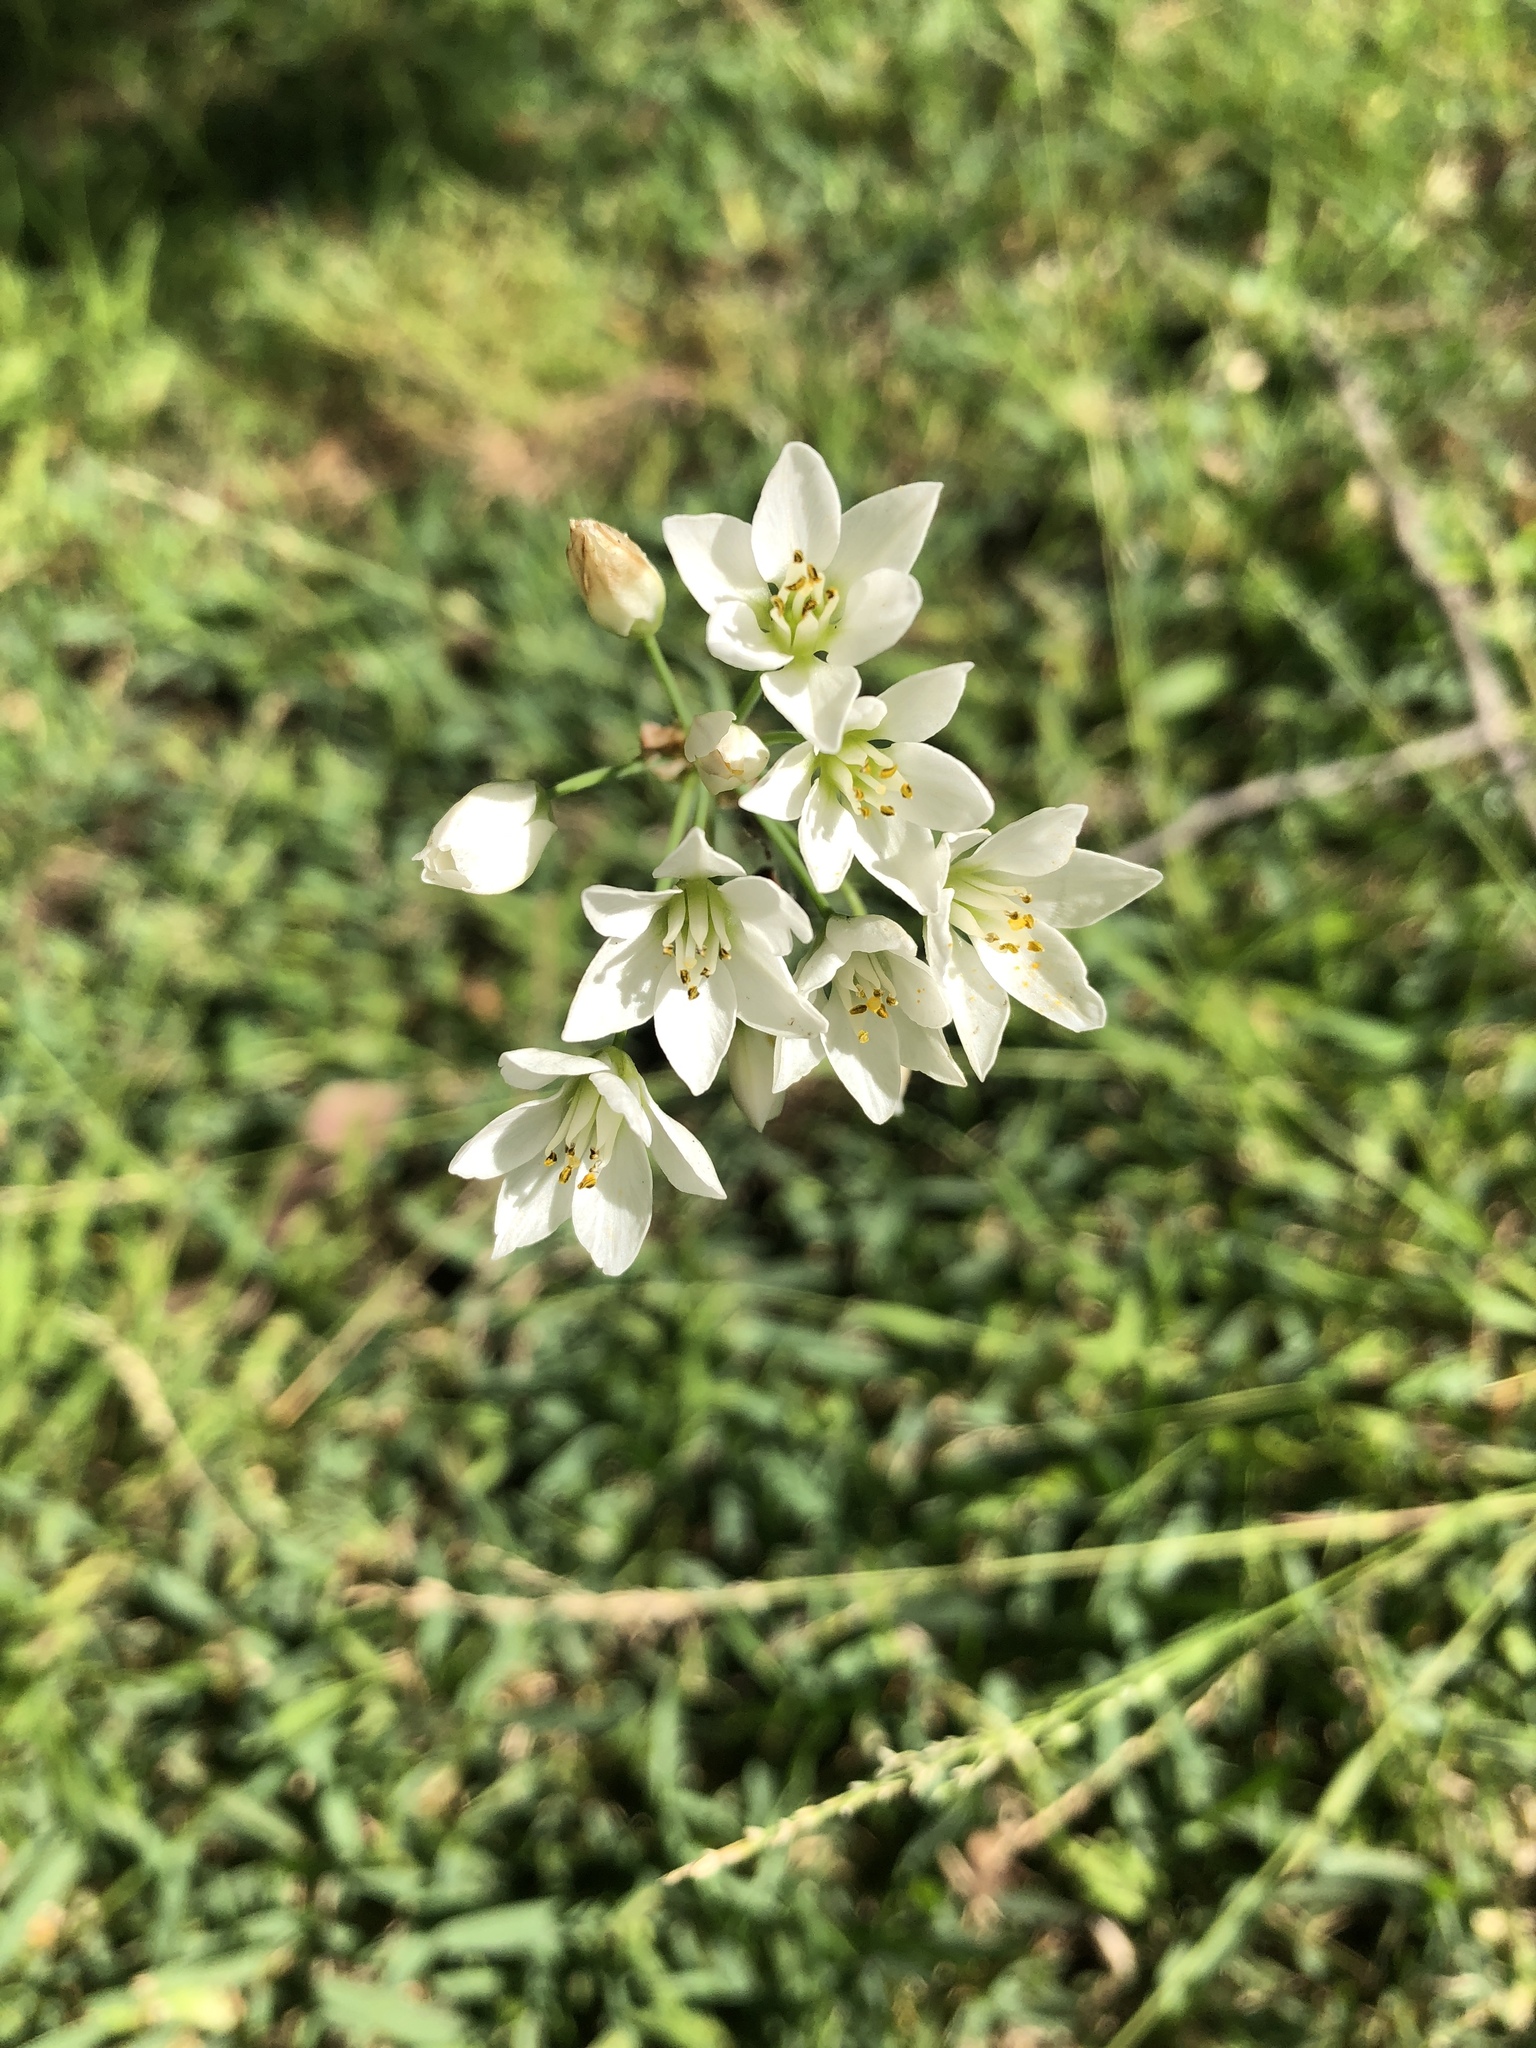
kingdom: Plantae
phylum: Tracheophyta
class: Liliopsida
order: Asparagales
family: Amaryllidaceae
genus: Nothoscordum
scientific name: Nothoscordum gracile
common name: Slender false garlic
